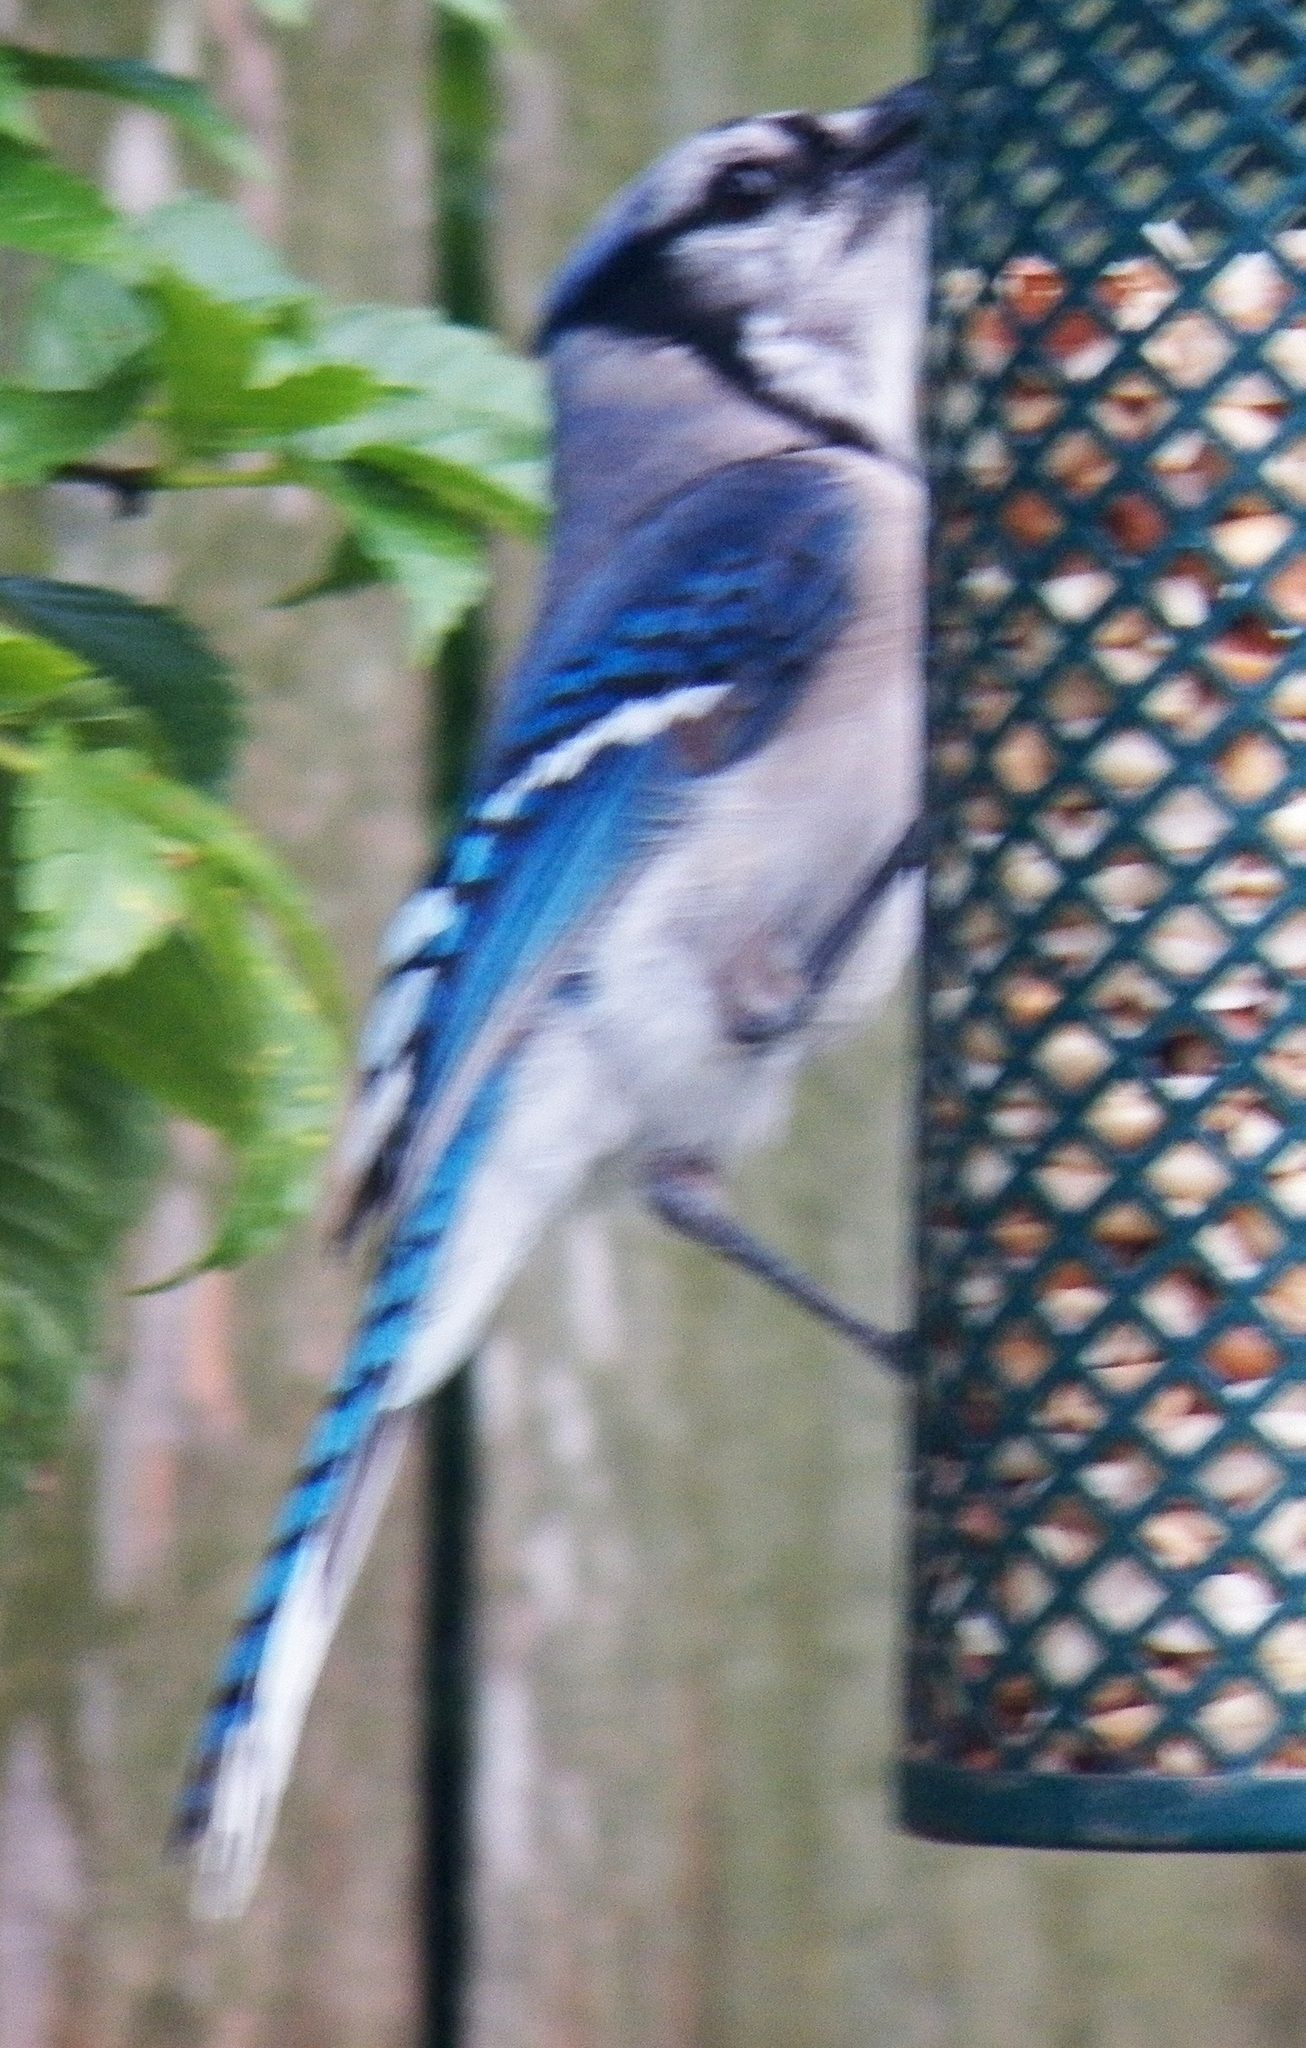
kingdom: Animalia
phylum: Chordata
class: Aves
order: Passeriformes
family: Corvidae
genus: Cyanocitta
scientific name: Cyanocitta cristata
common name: Blue jay
